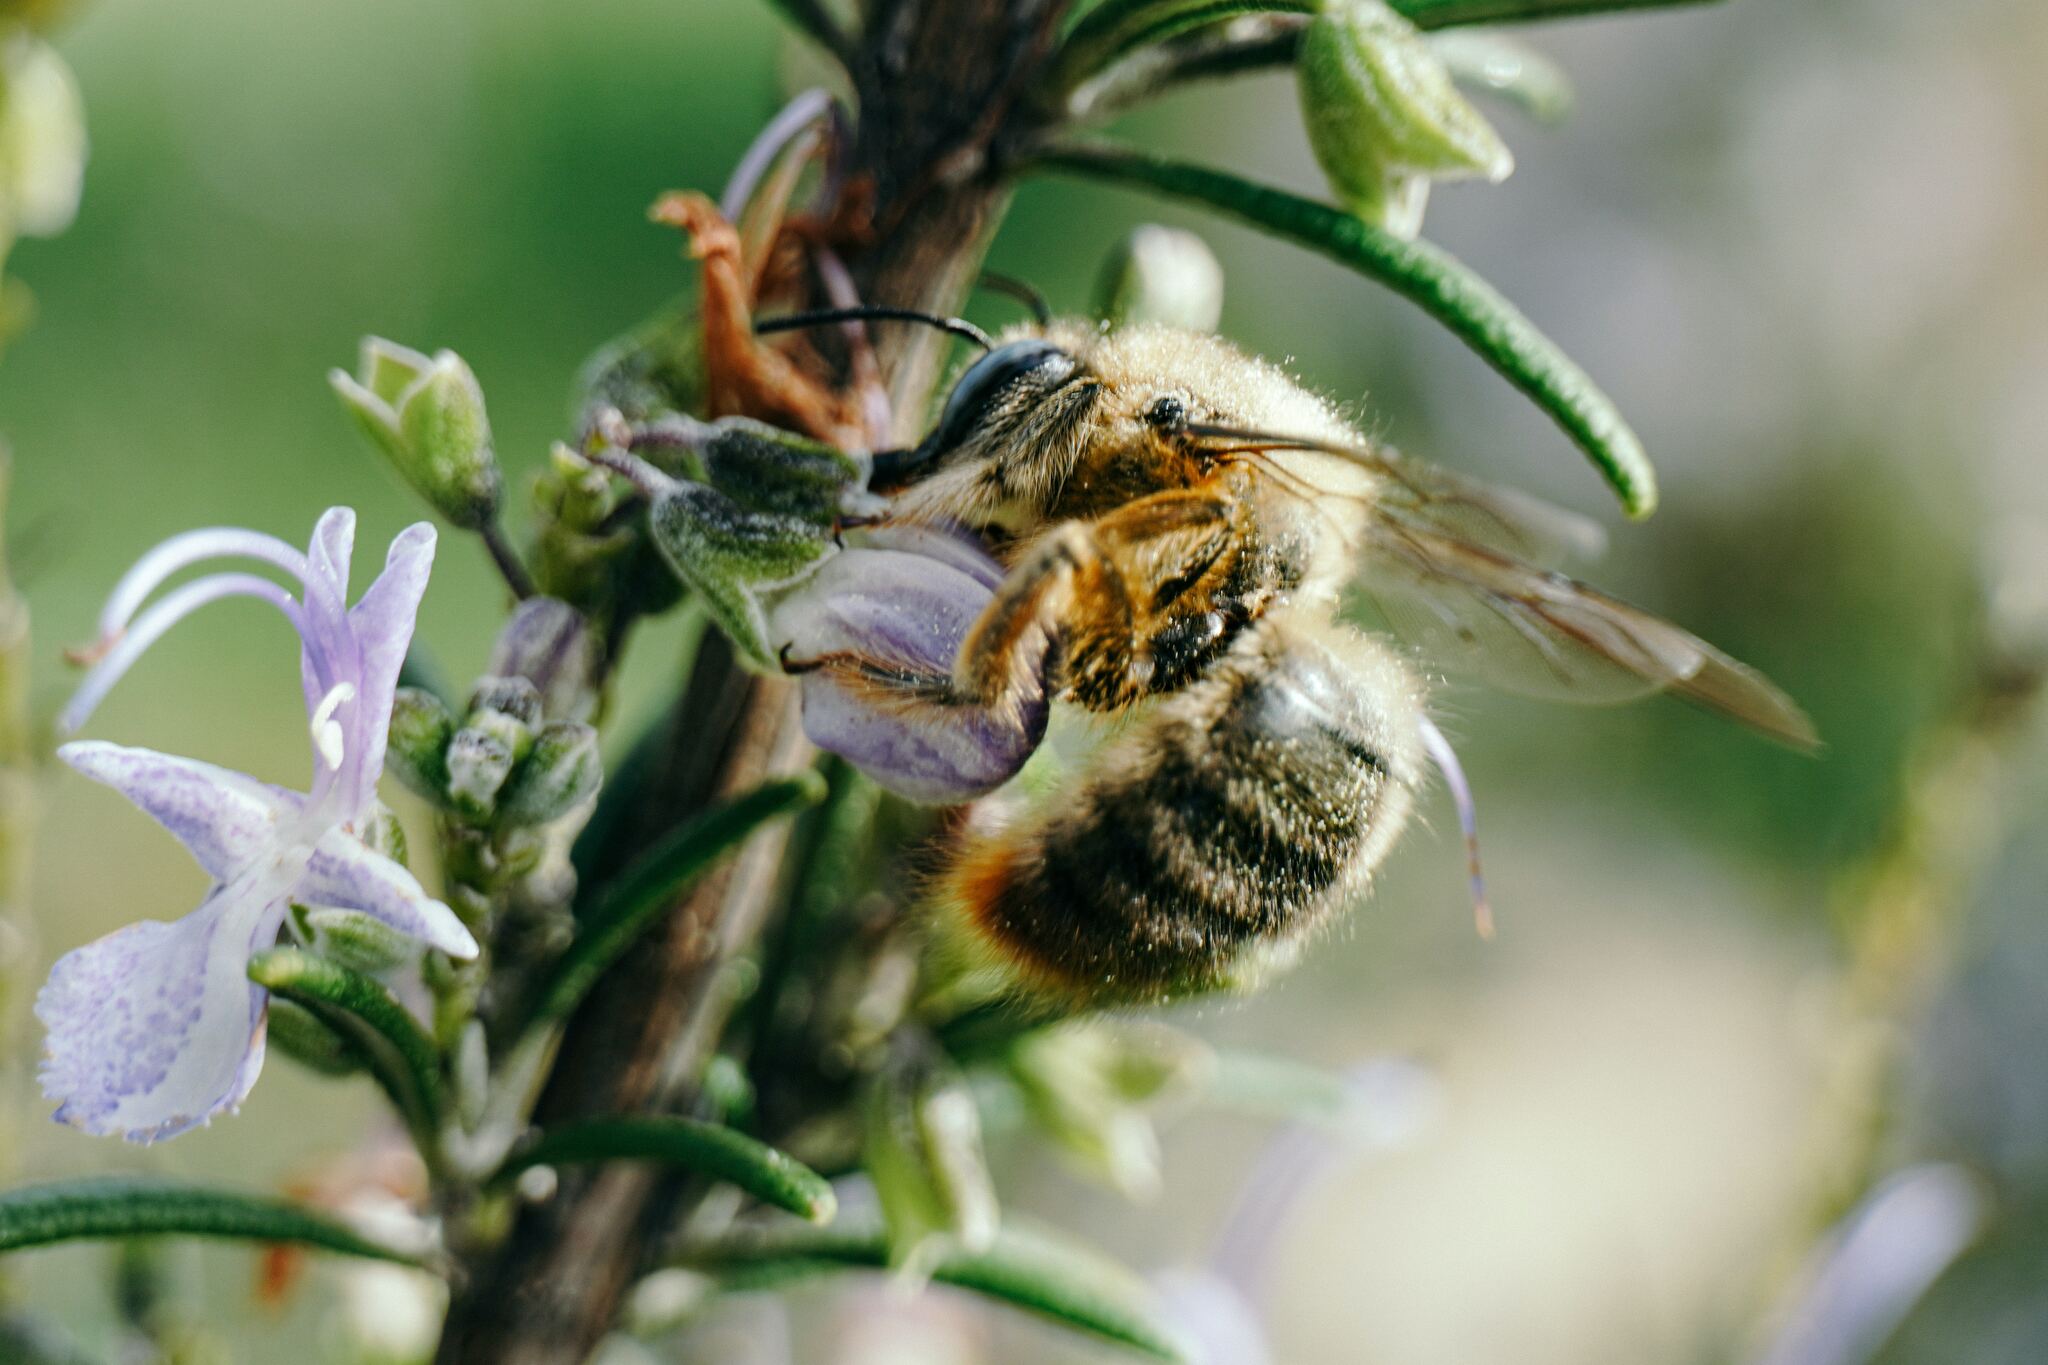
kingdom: Animalia
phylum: Arthropoda
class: Insecta
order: Hymenoptera
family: Apidae
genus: Xylocopa
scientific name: Xylocopa cantabrita
